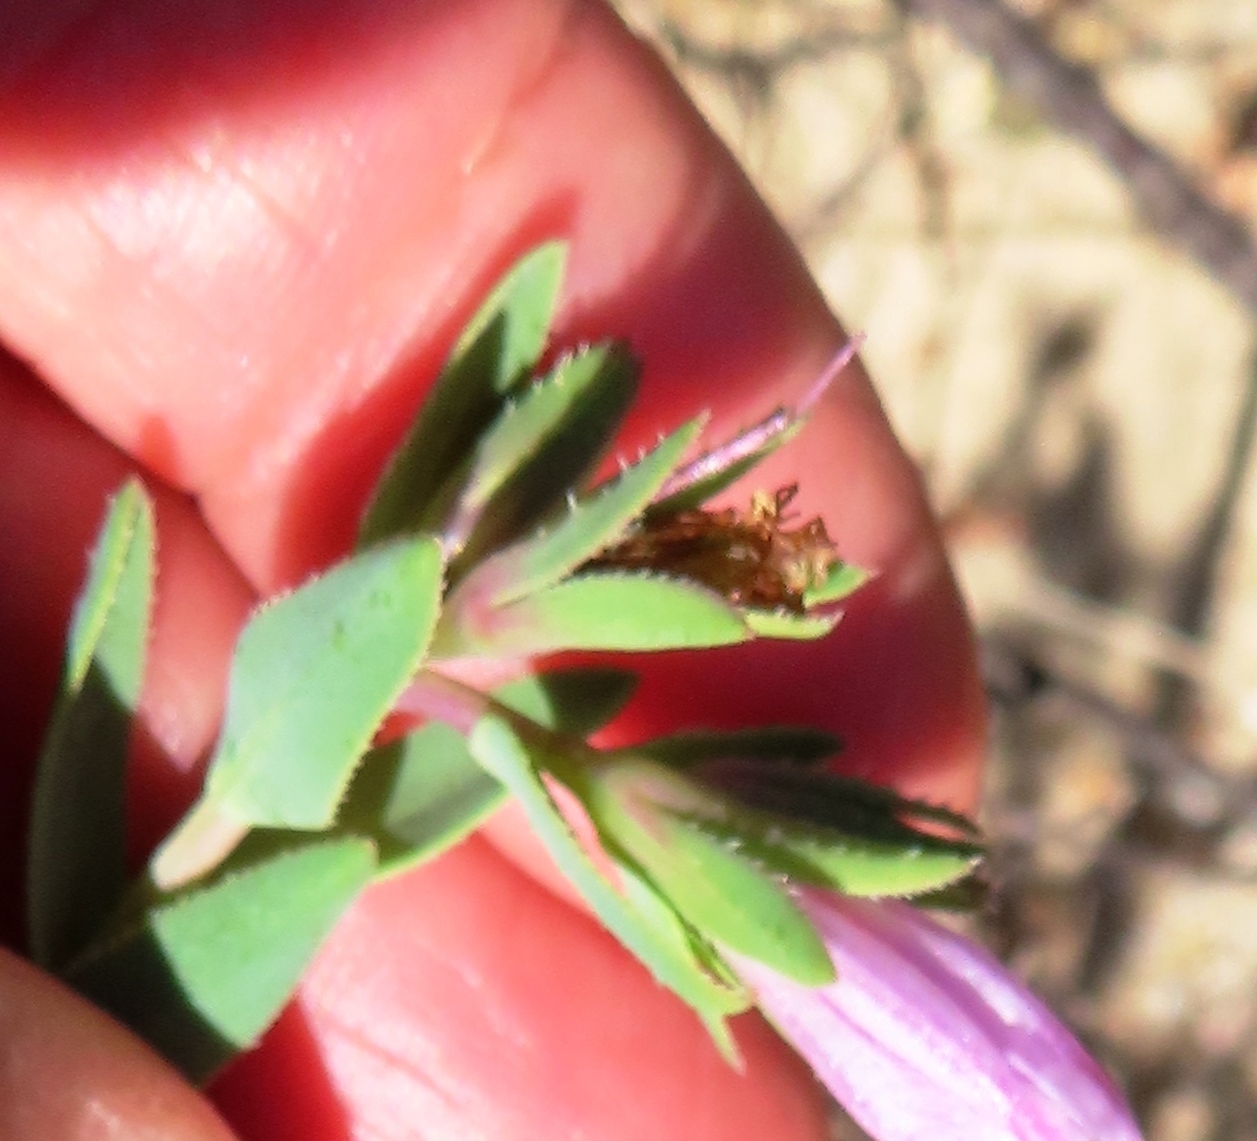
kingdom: Plantae
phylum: Tracheophyta
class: Magnoliopsida
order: Boraginales
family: Boraginaceae
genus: Lobostemon
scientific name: Lobostemon hottentoticus
